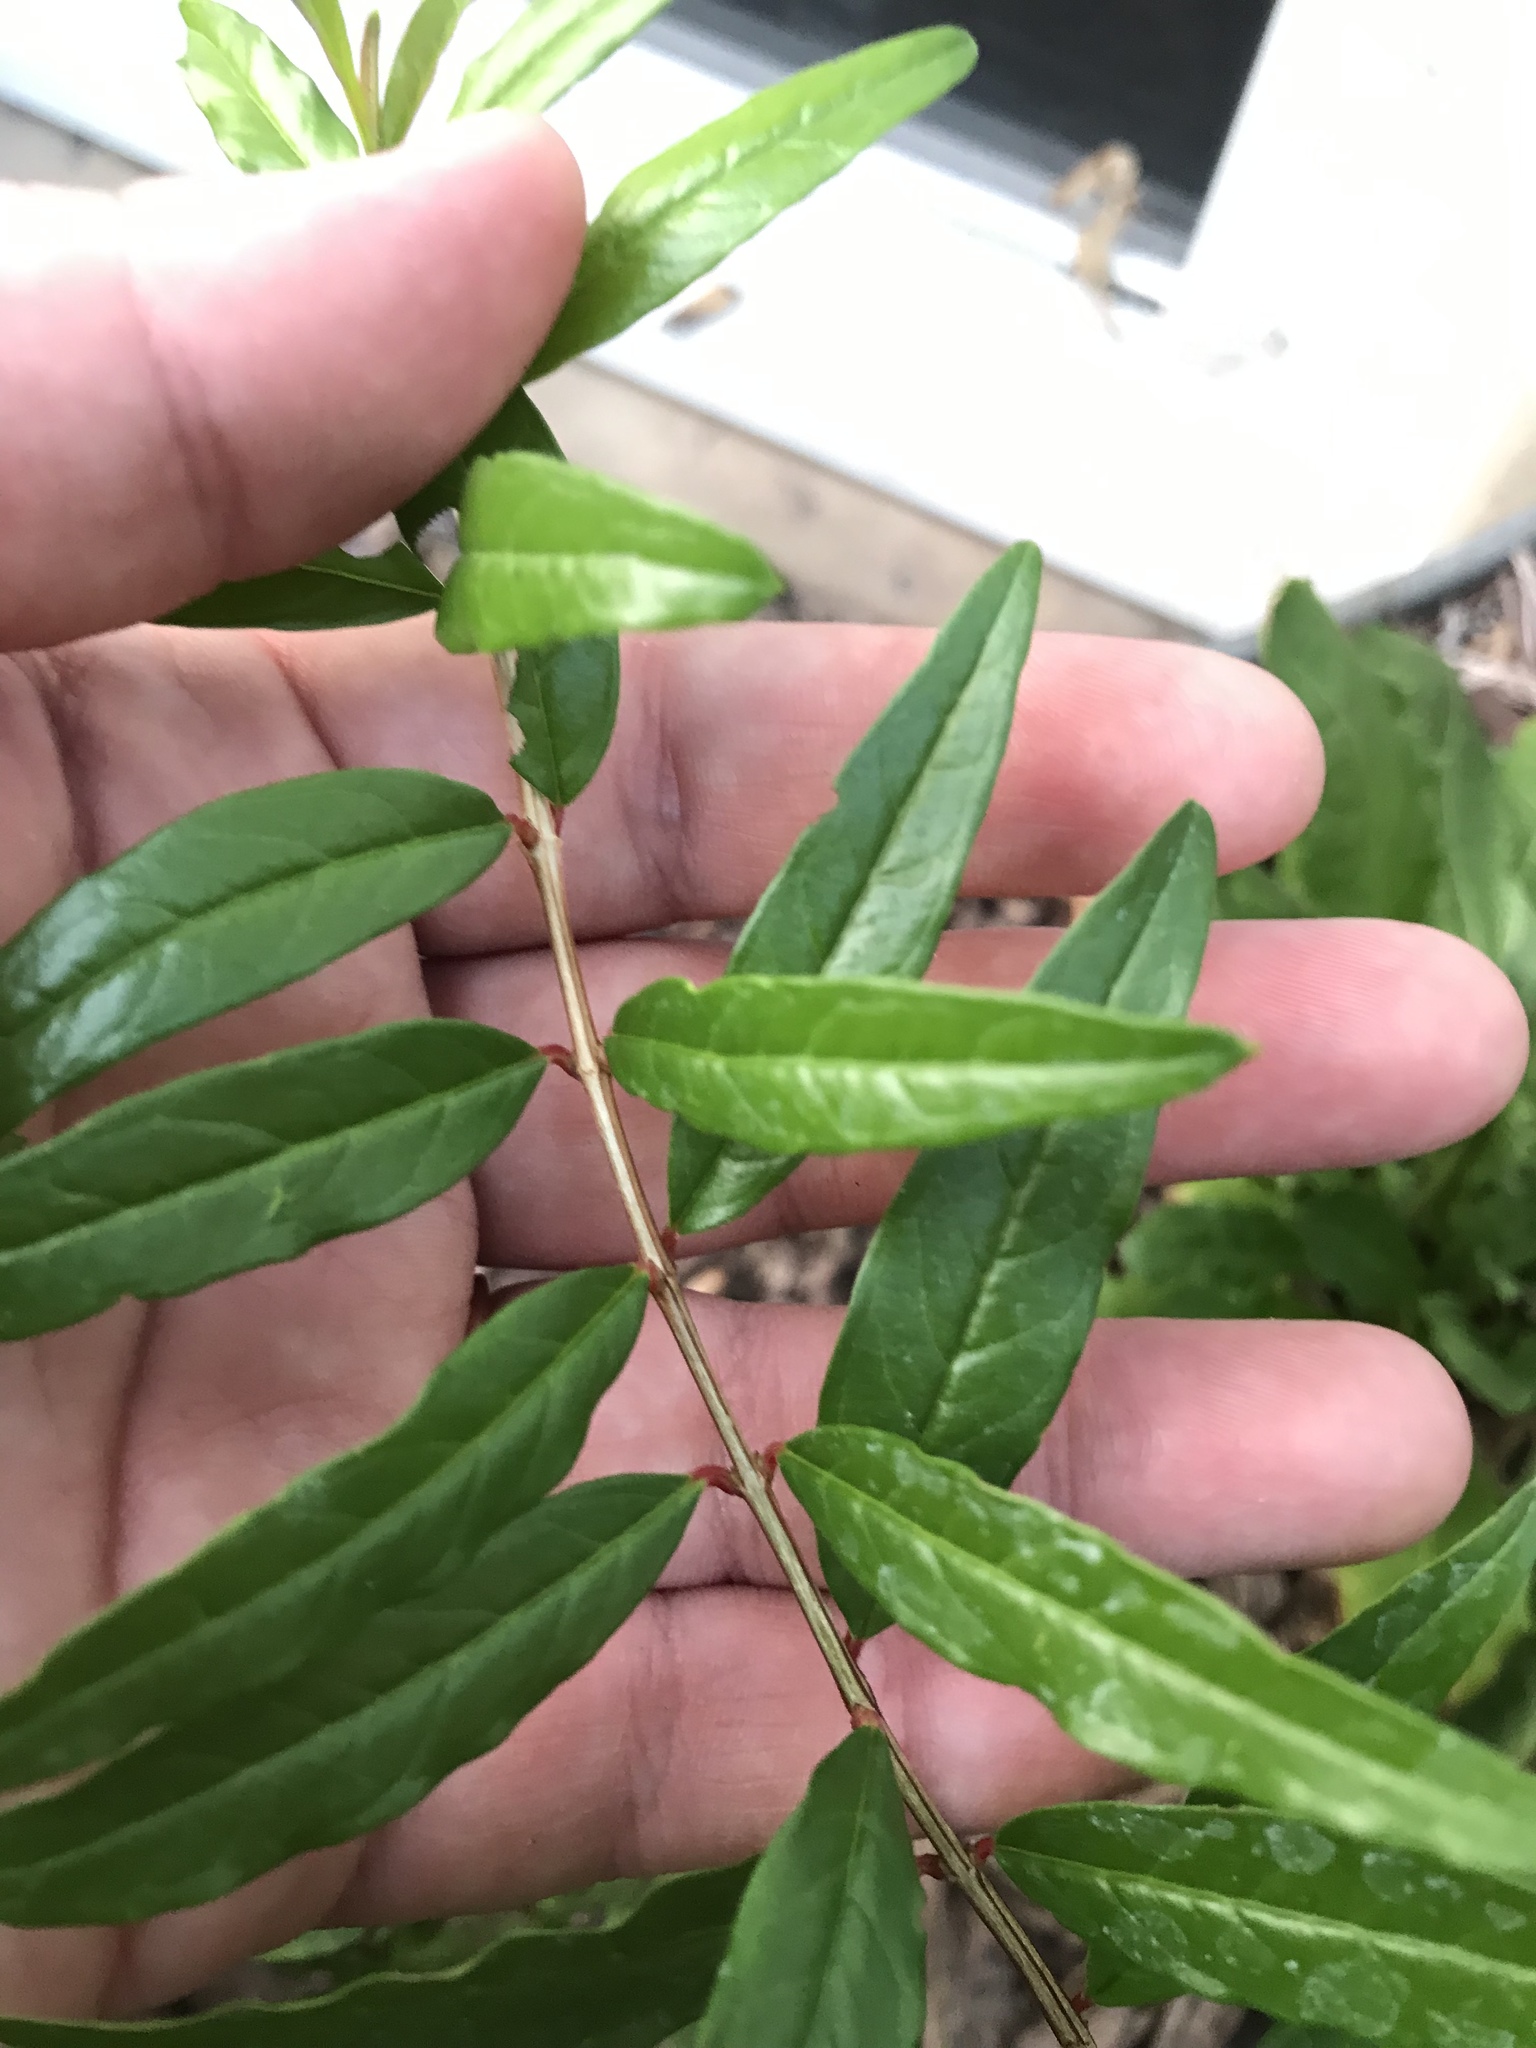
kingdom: Plantae
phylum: Tracheophyta
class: Magnoliopsida
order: Myrtales
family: Lythraceae
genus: Punica
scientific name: Punica granatum
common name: Pomegranate
